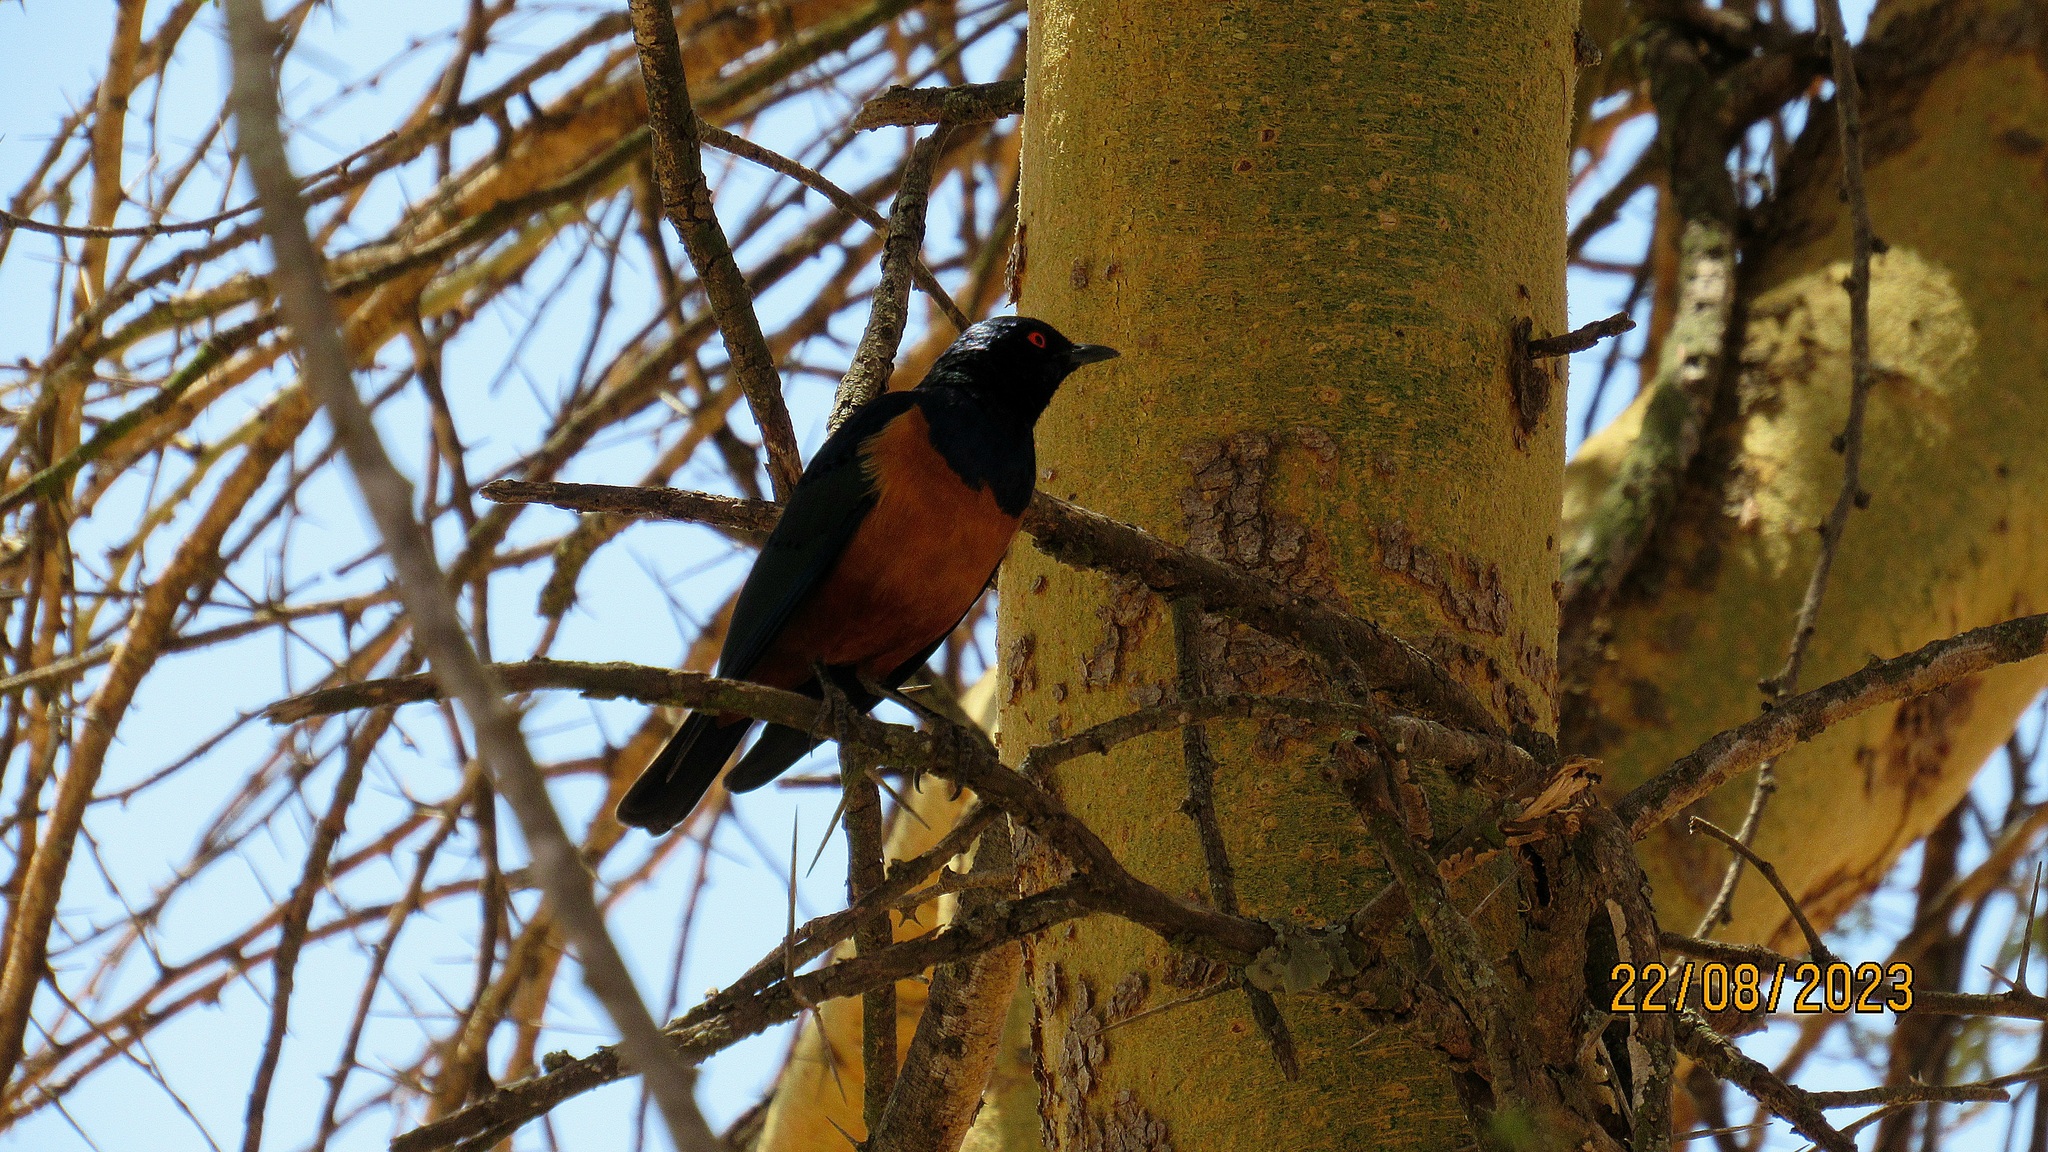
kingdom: Animalia
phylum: Chordata
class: Aves
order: Passeriformes
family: Sturnidae
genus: Lamprotornis
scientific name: Lamprotornis hildebrandti
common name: Hildebrandt's starling
